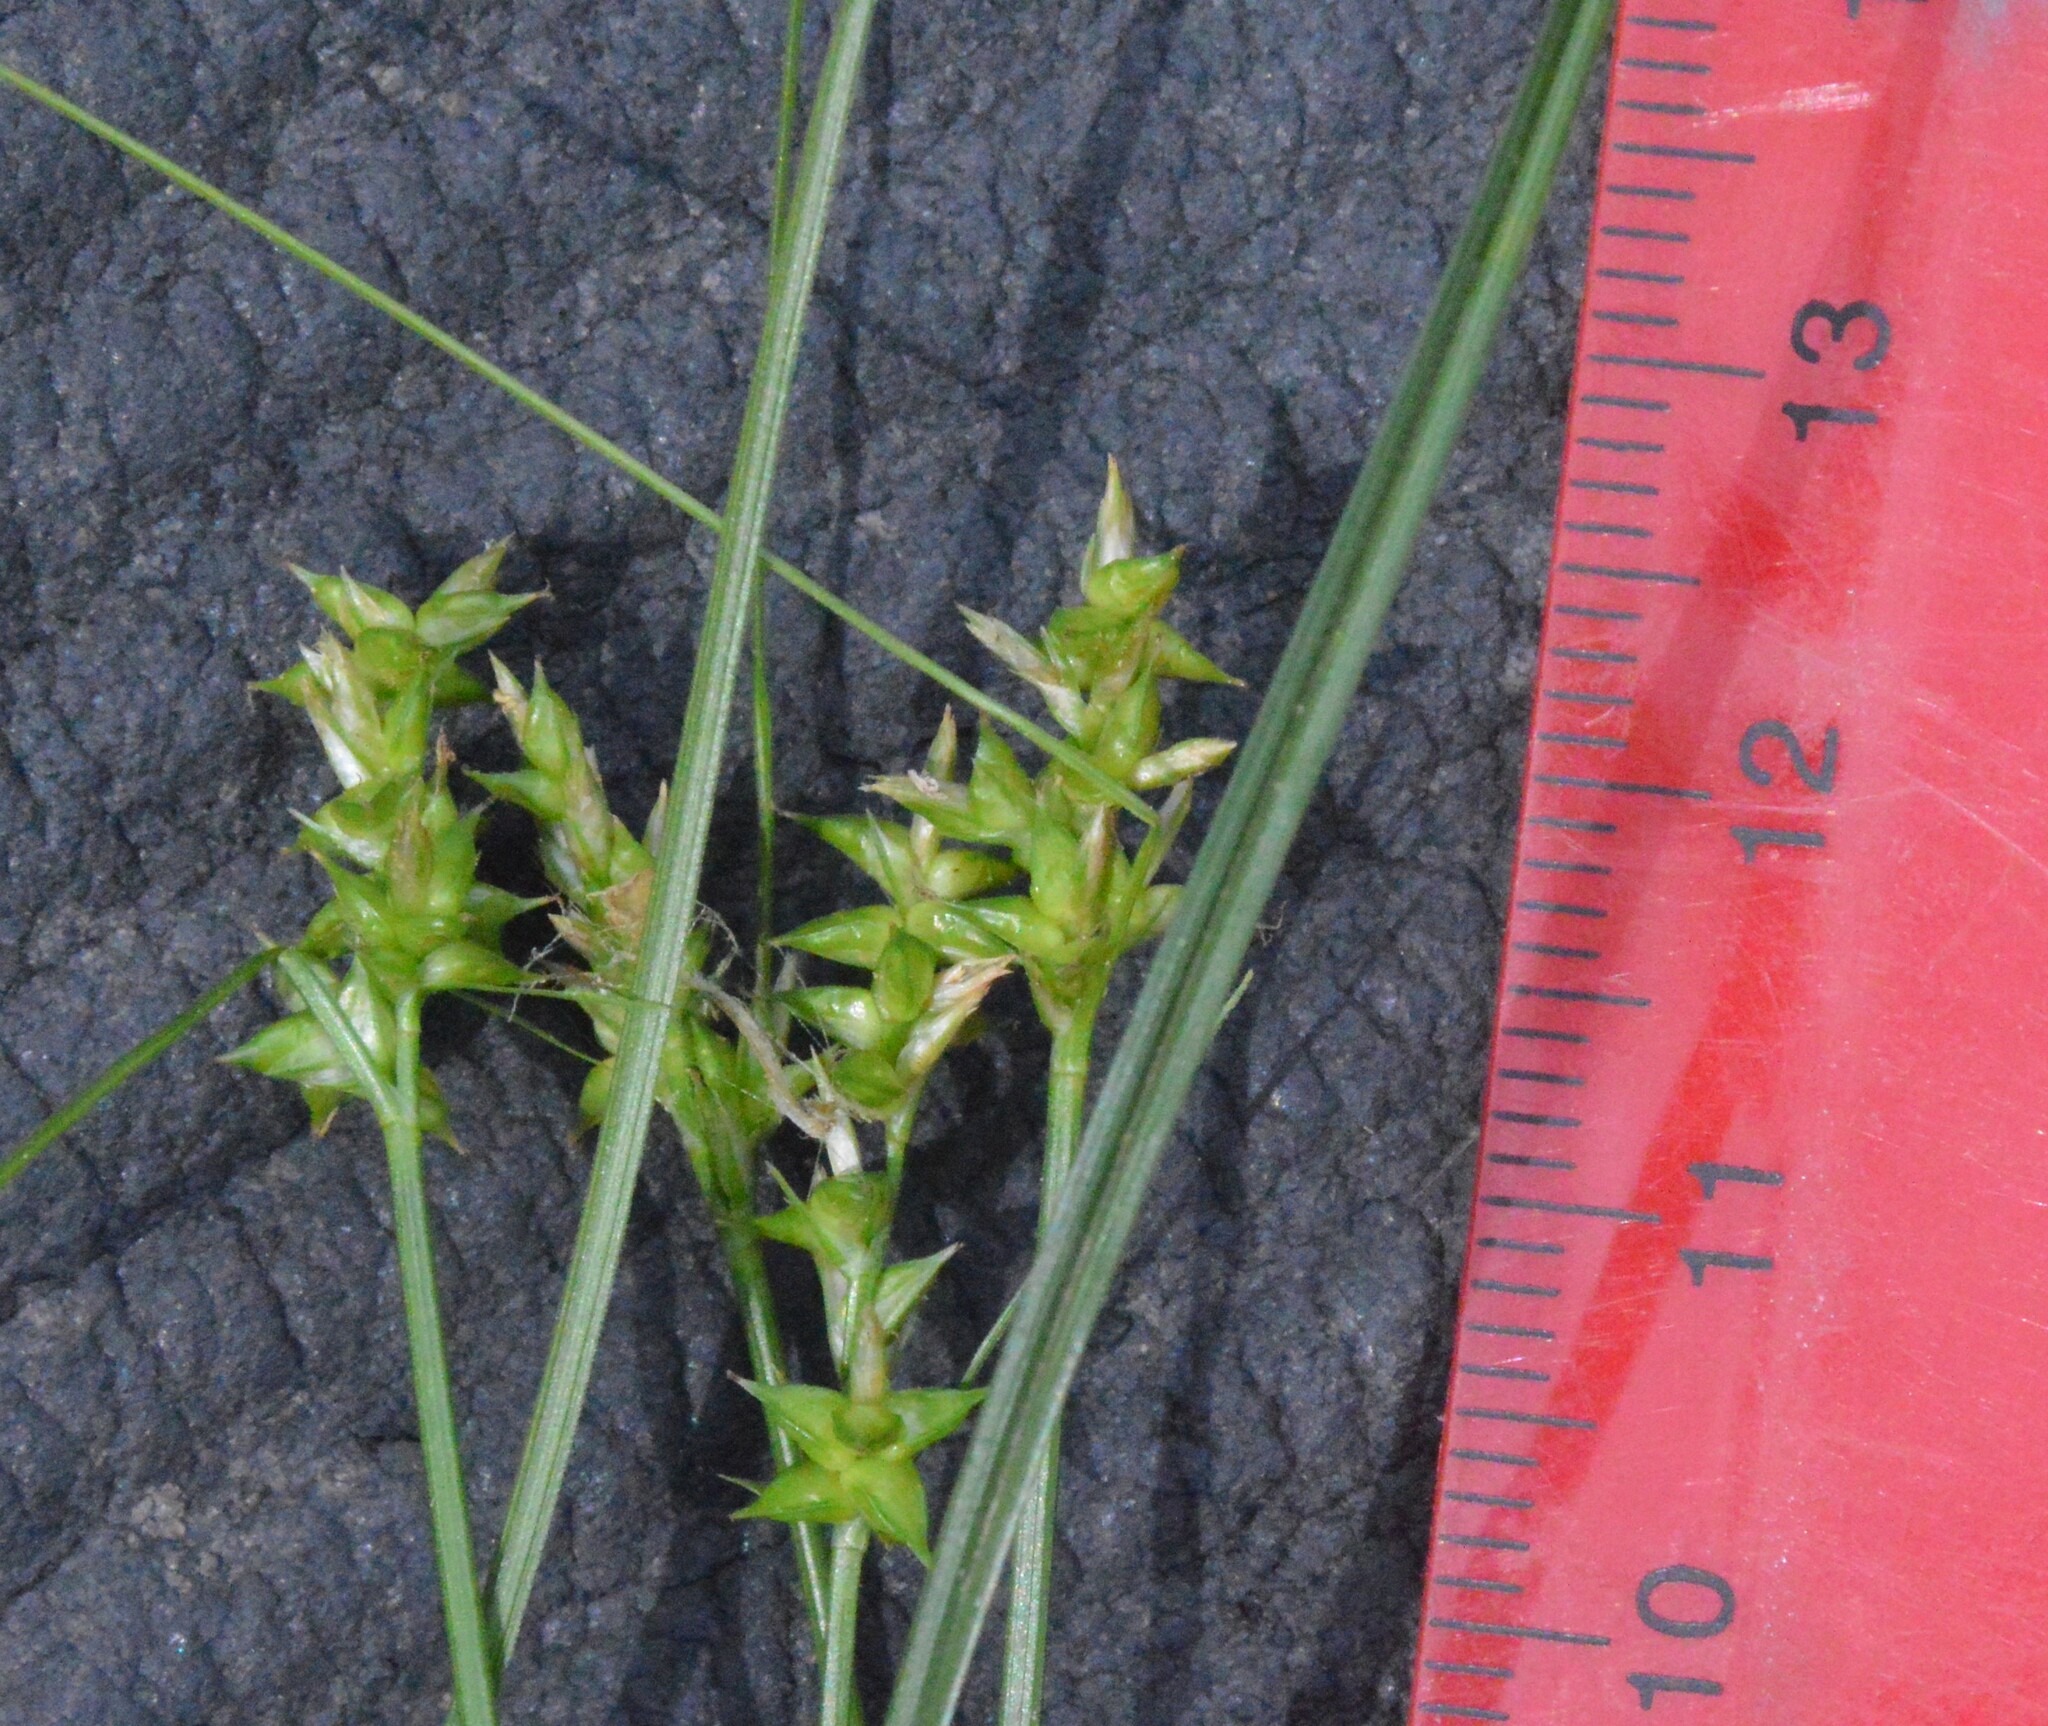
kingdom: Plantae
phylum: Tracheophyta
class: Liliopsida
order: Poales
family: Cyperaceae
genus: Carex
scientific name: Carex retroflexa
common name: Reflexed sedge
